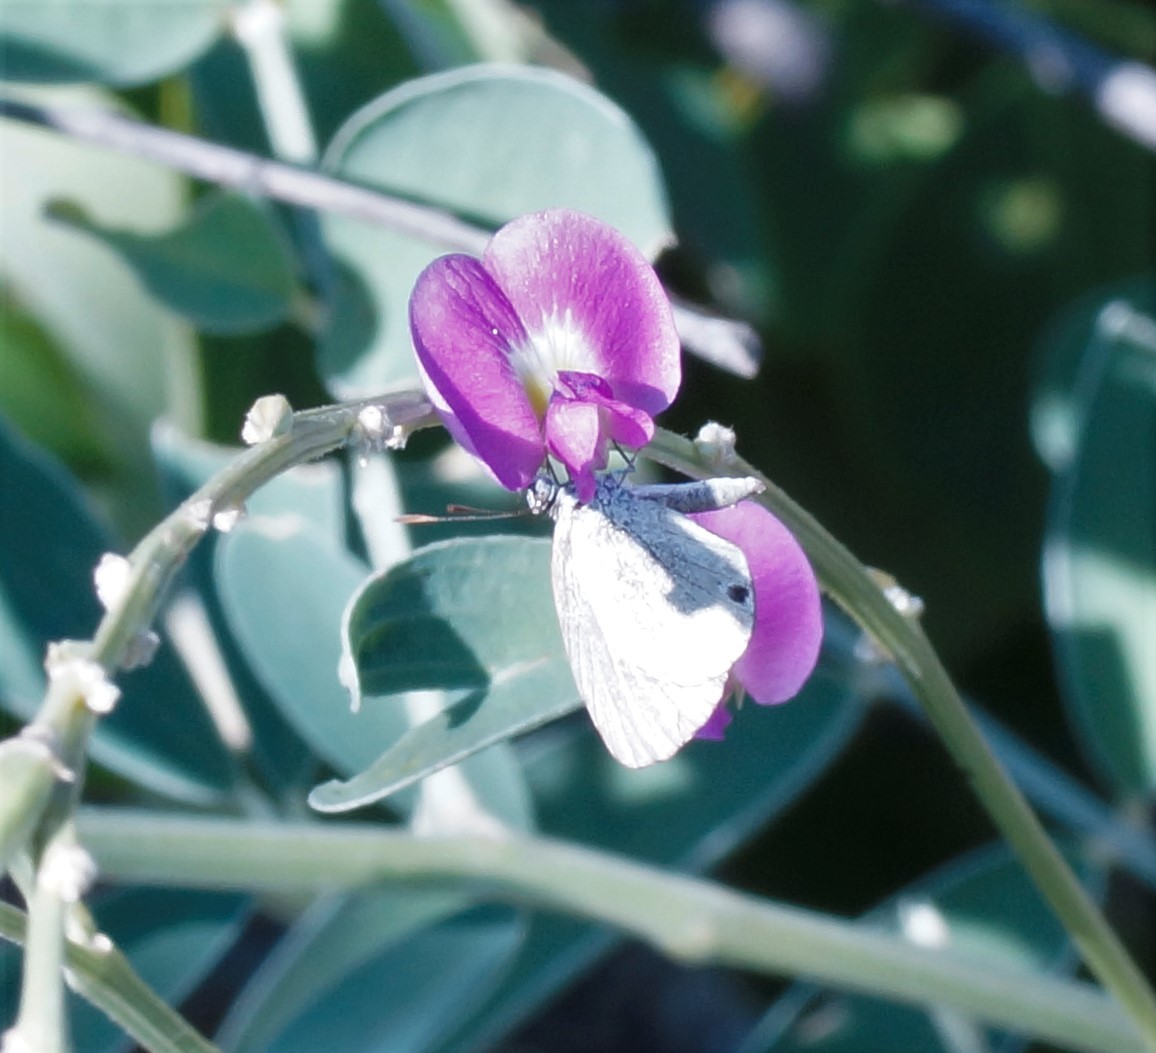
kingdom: Animalia
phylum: Arthropoda
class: Insecta
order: Lepidoptera
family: Lycaenidae
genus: Cupido
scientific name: Cupido nisa
